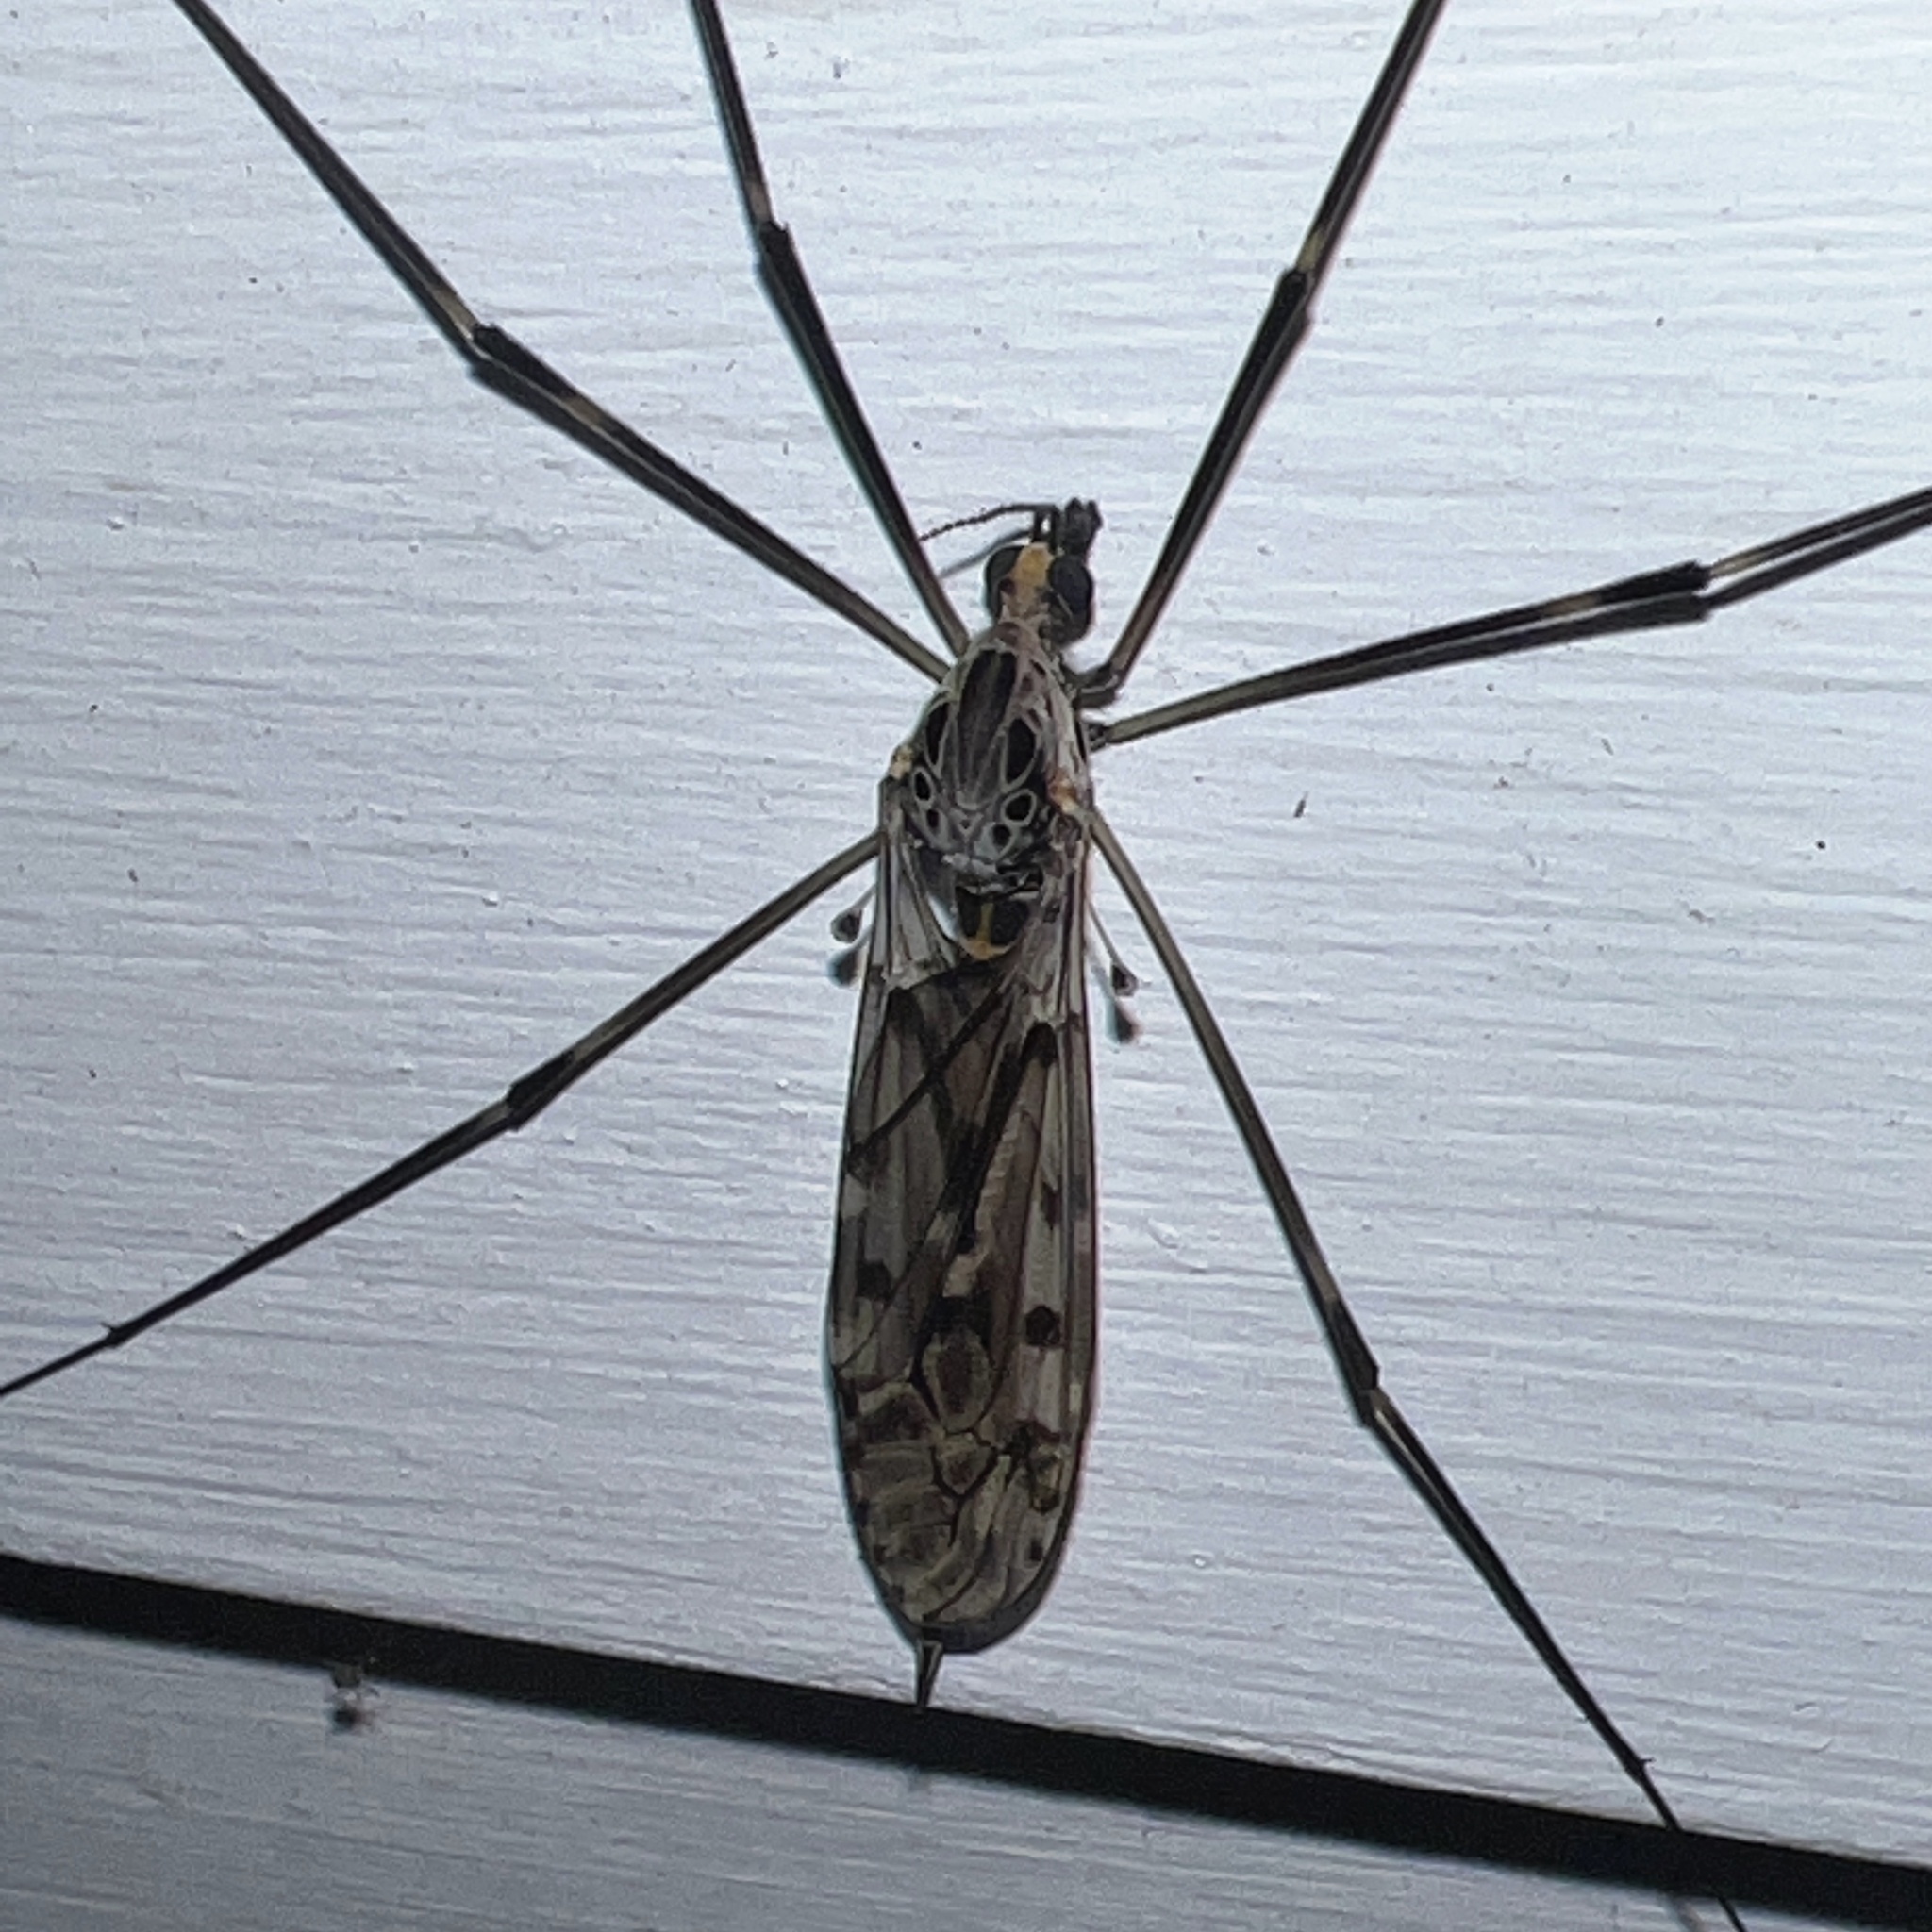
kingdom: Animalia
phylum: Arthropoda
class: Insecta
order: Diptera
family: Tipulidae
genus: Tipula
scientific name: Tipula abdominalis
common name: Giant crane fly
